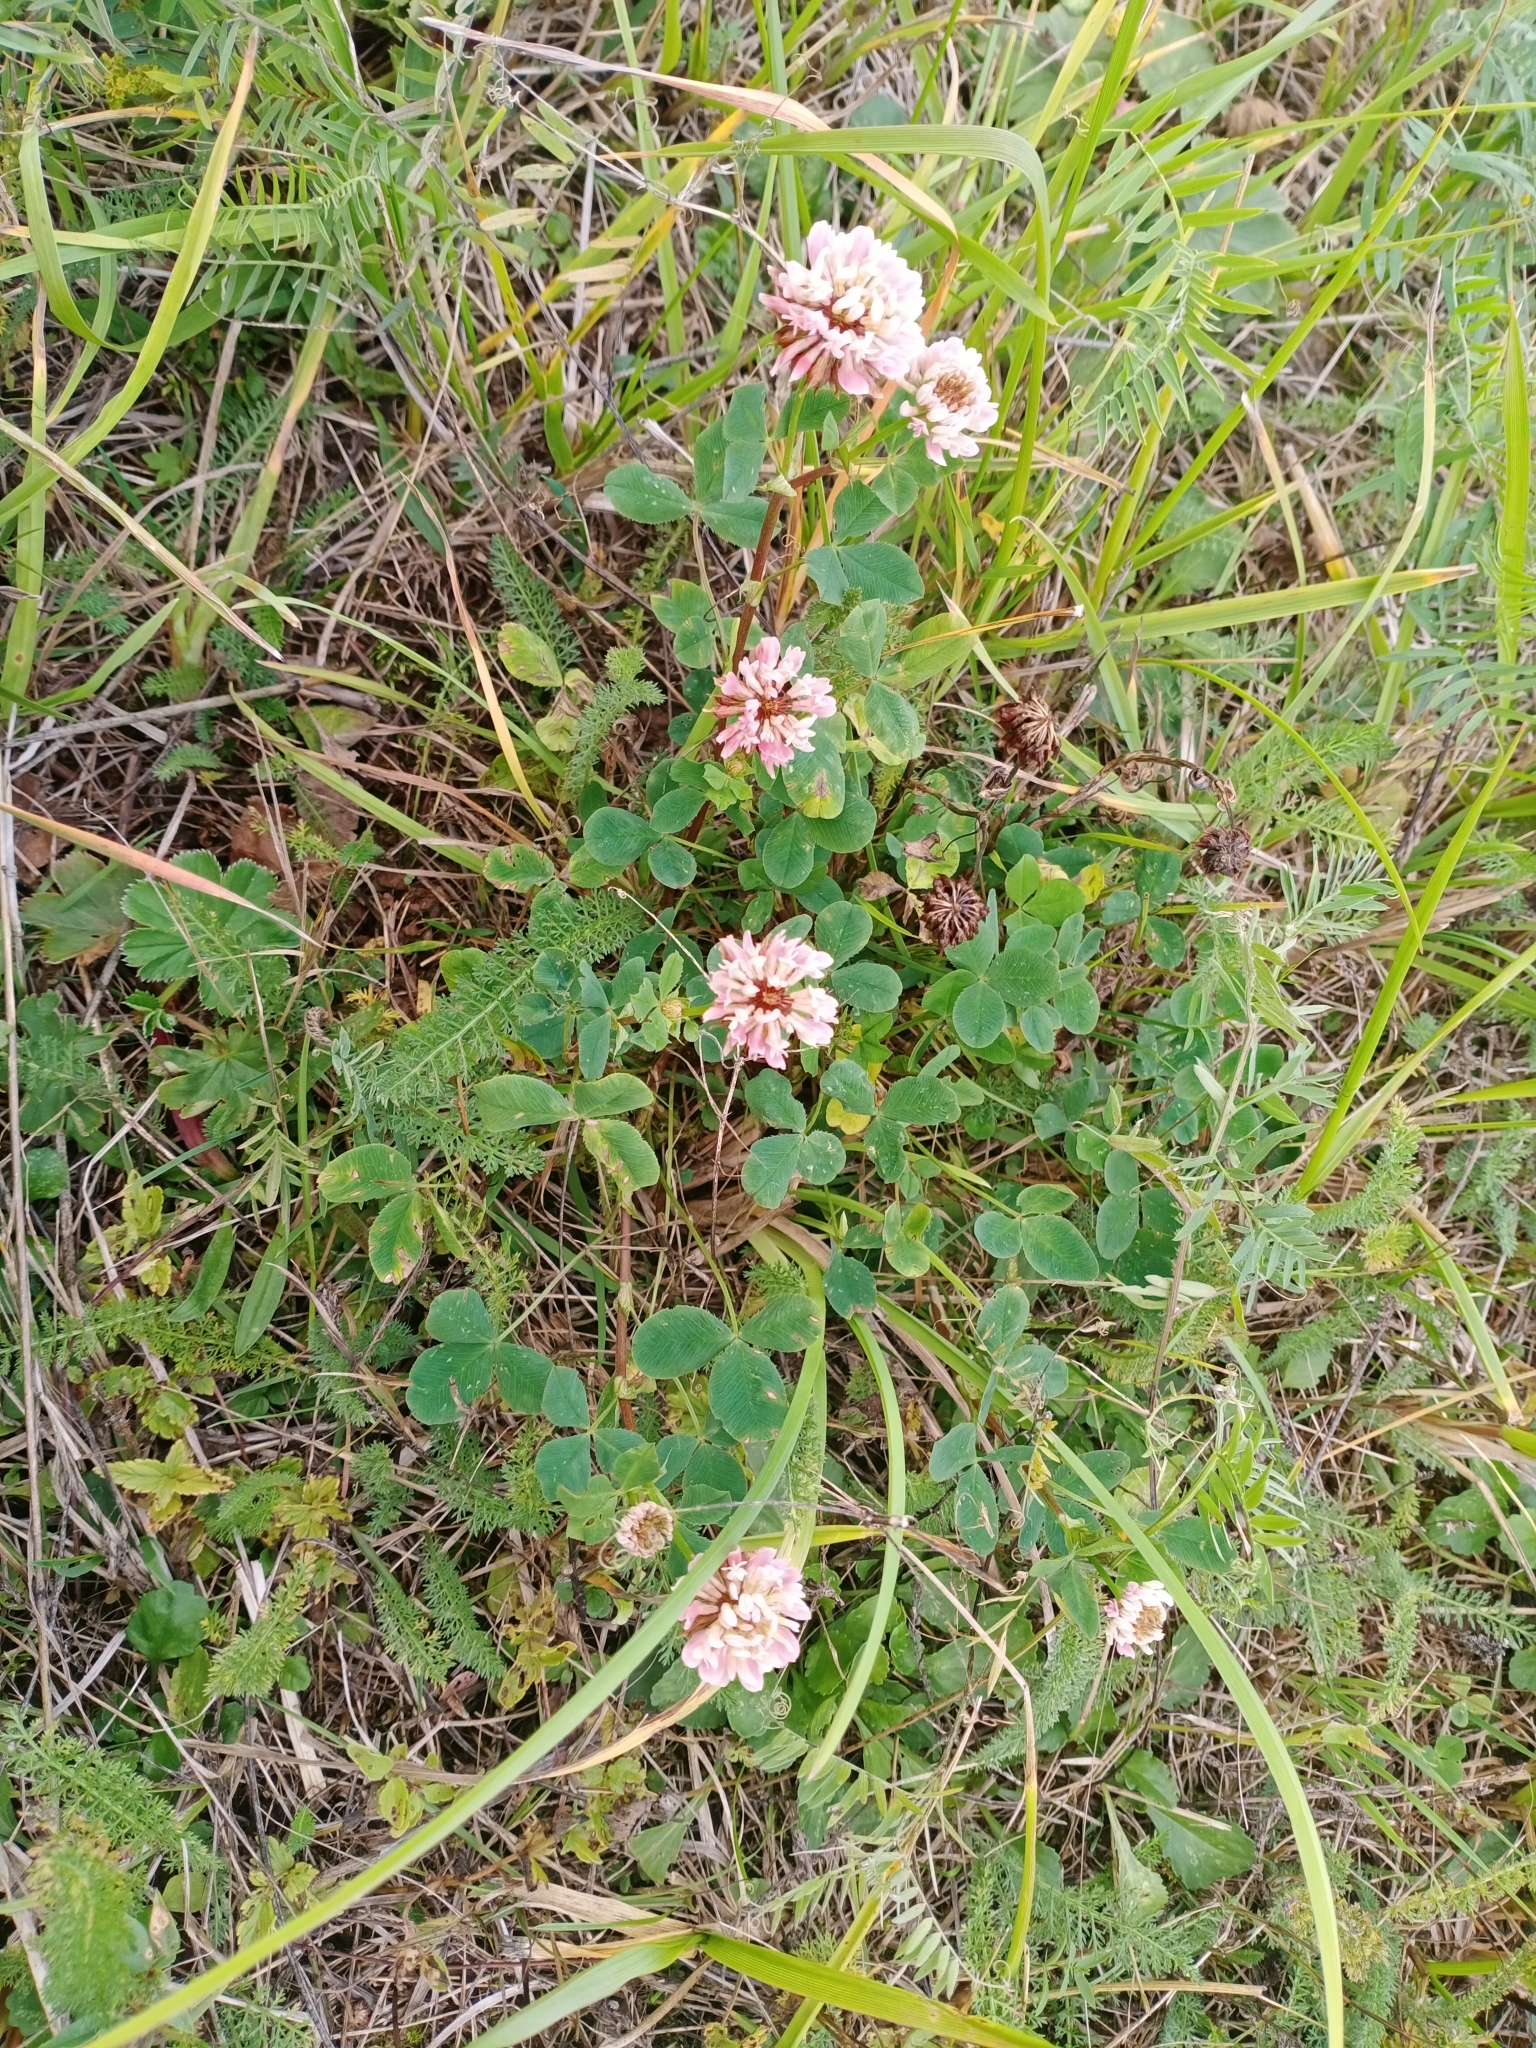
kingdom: Plantae
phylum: Tracheophyta
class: Magnoliopsida
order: Fabales
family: Fabaceae
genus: Trifolium
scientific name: Trifolium hybridum
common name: Alsike clover
